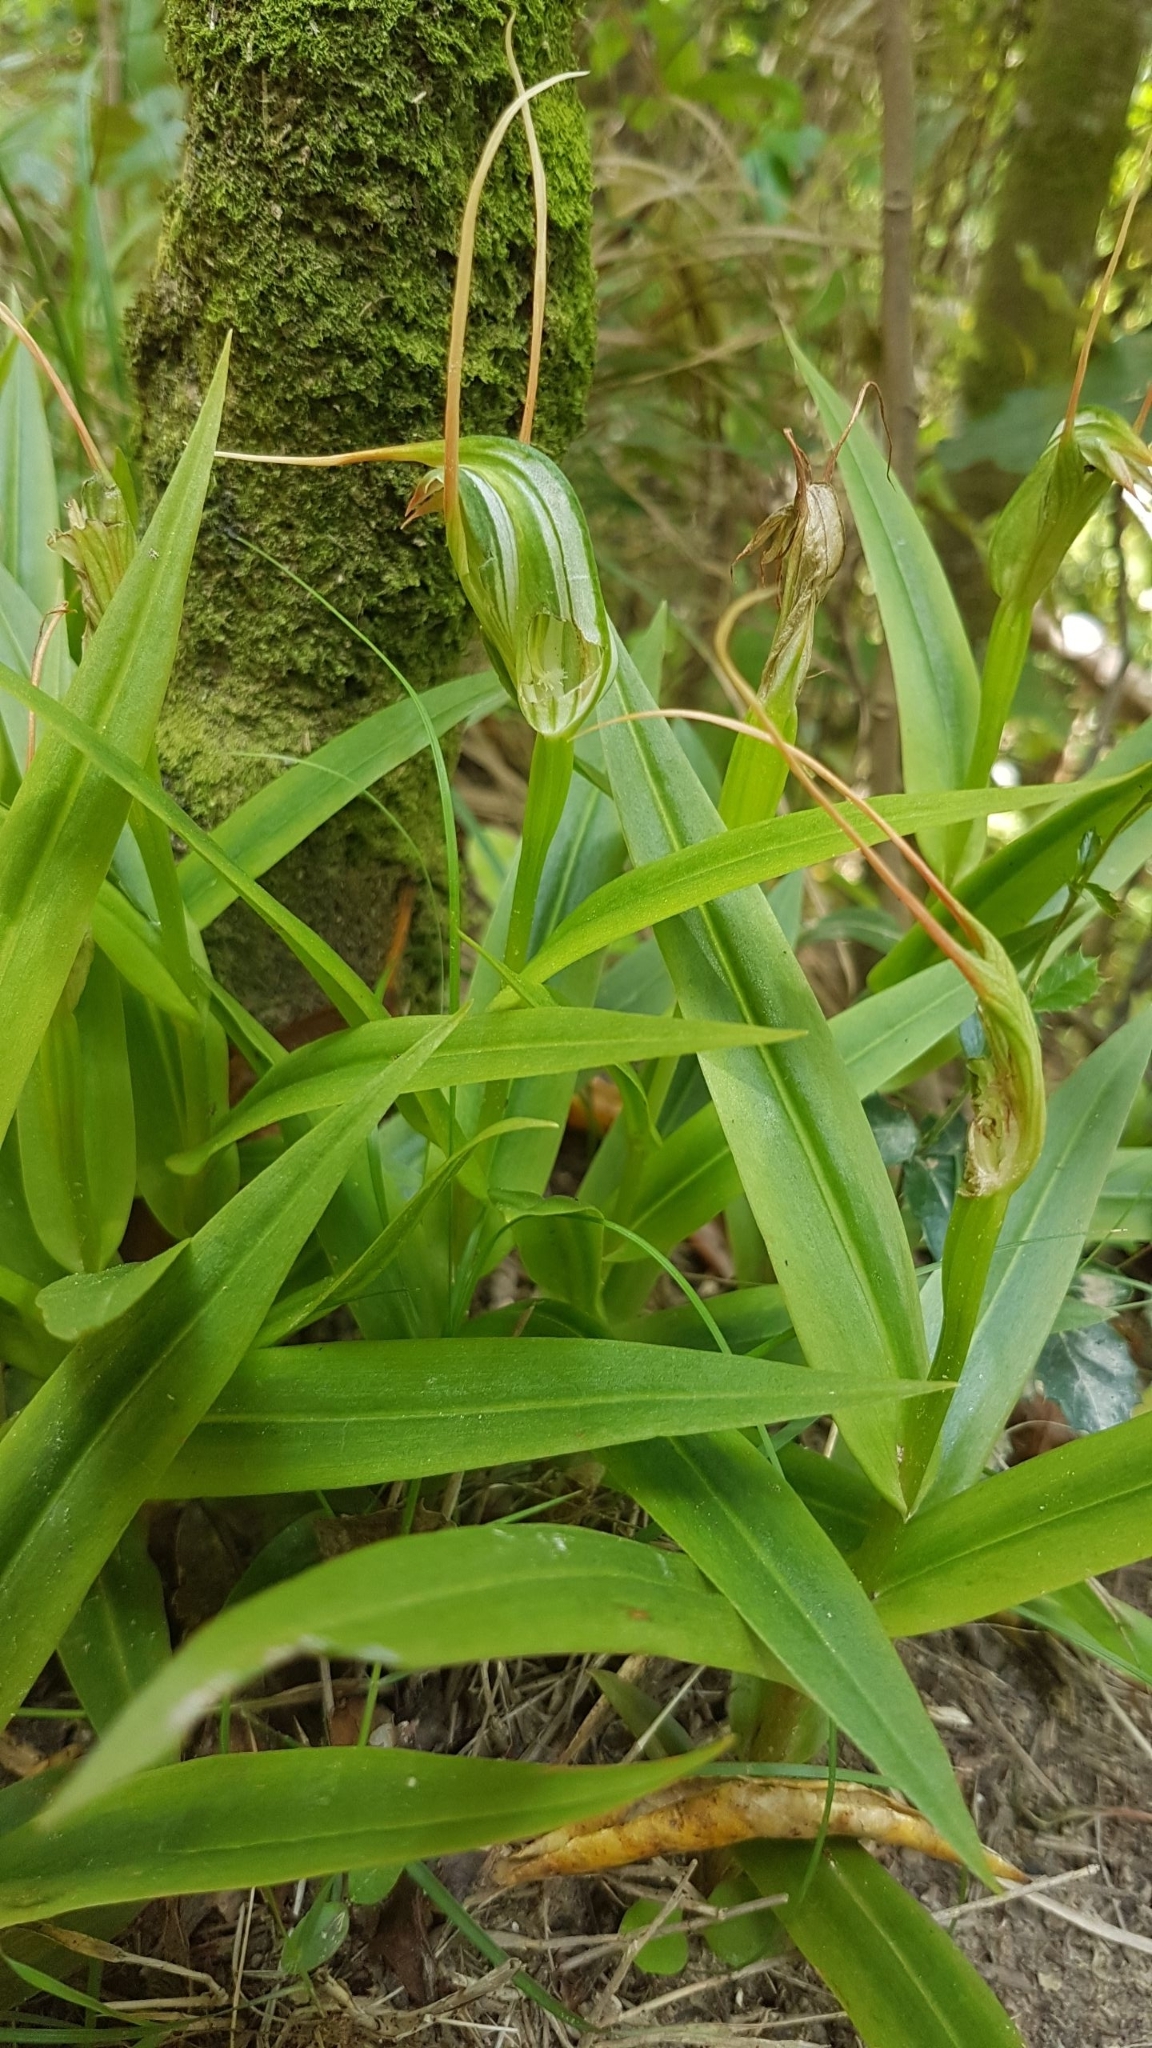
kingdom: Plantae
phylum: Tracheophyta
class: Liliopsida
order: Asparagales
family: Orchidaceae
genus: Pterostylis
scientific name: Pterostylis banksii
